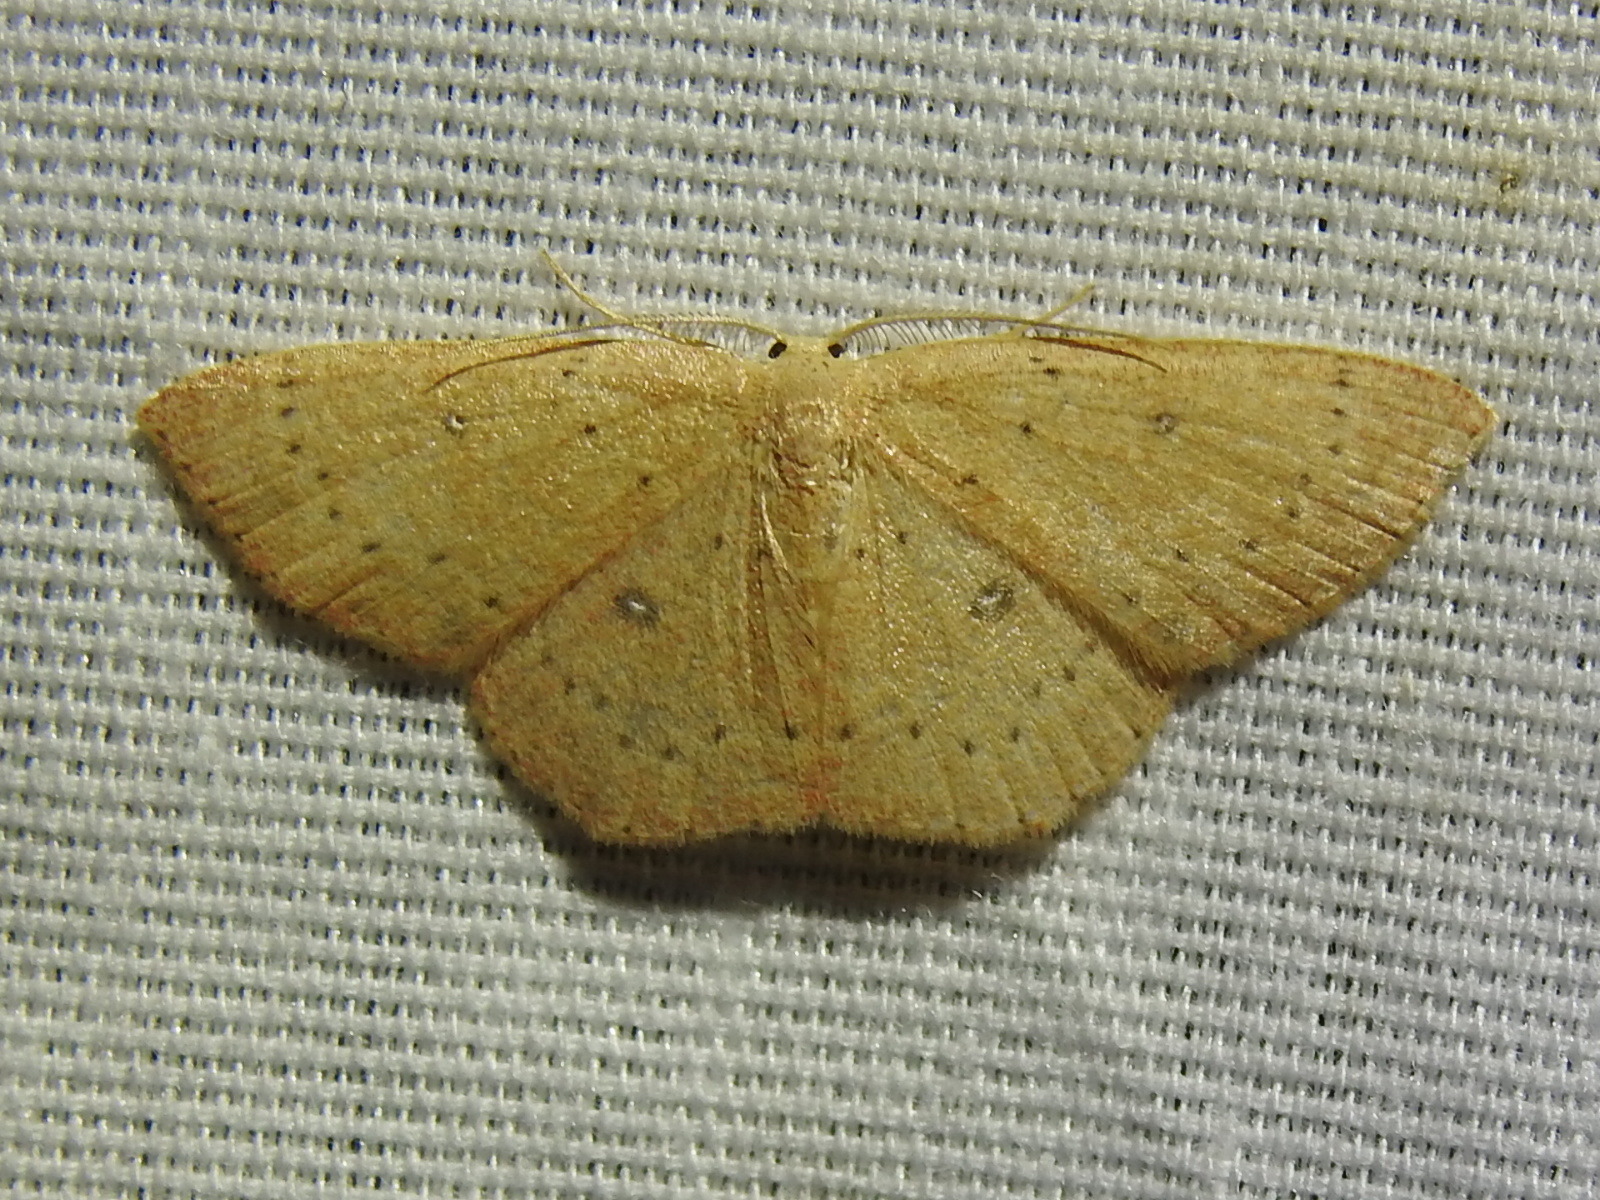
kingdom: Animalia
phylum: Arthropoda
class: Insecta
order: Lepidoptera
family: Geometridae
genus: Cyclophora
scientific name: Cyclophora packardi
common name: Packard's wave
